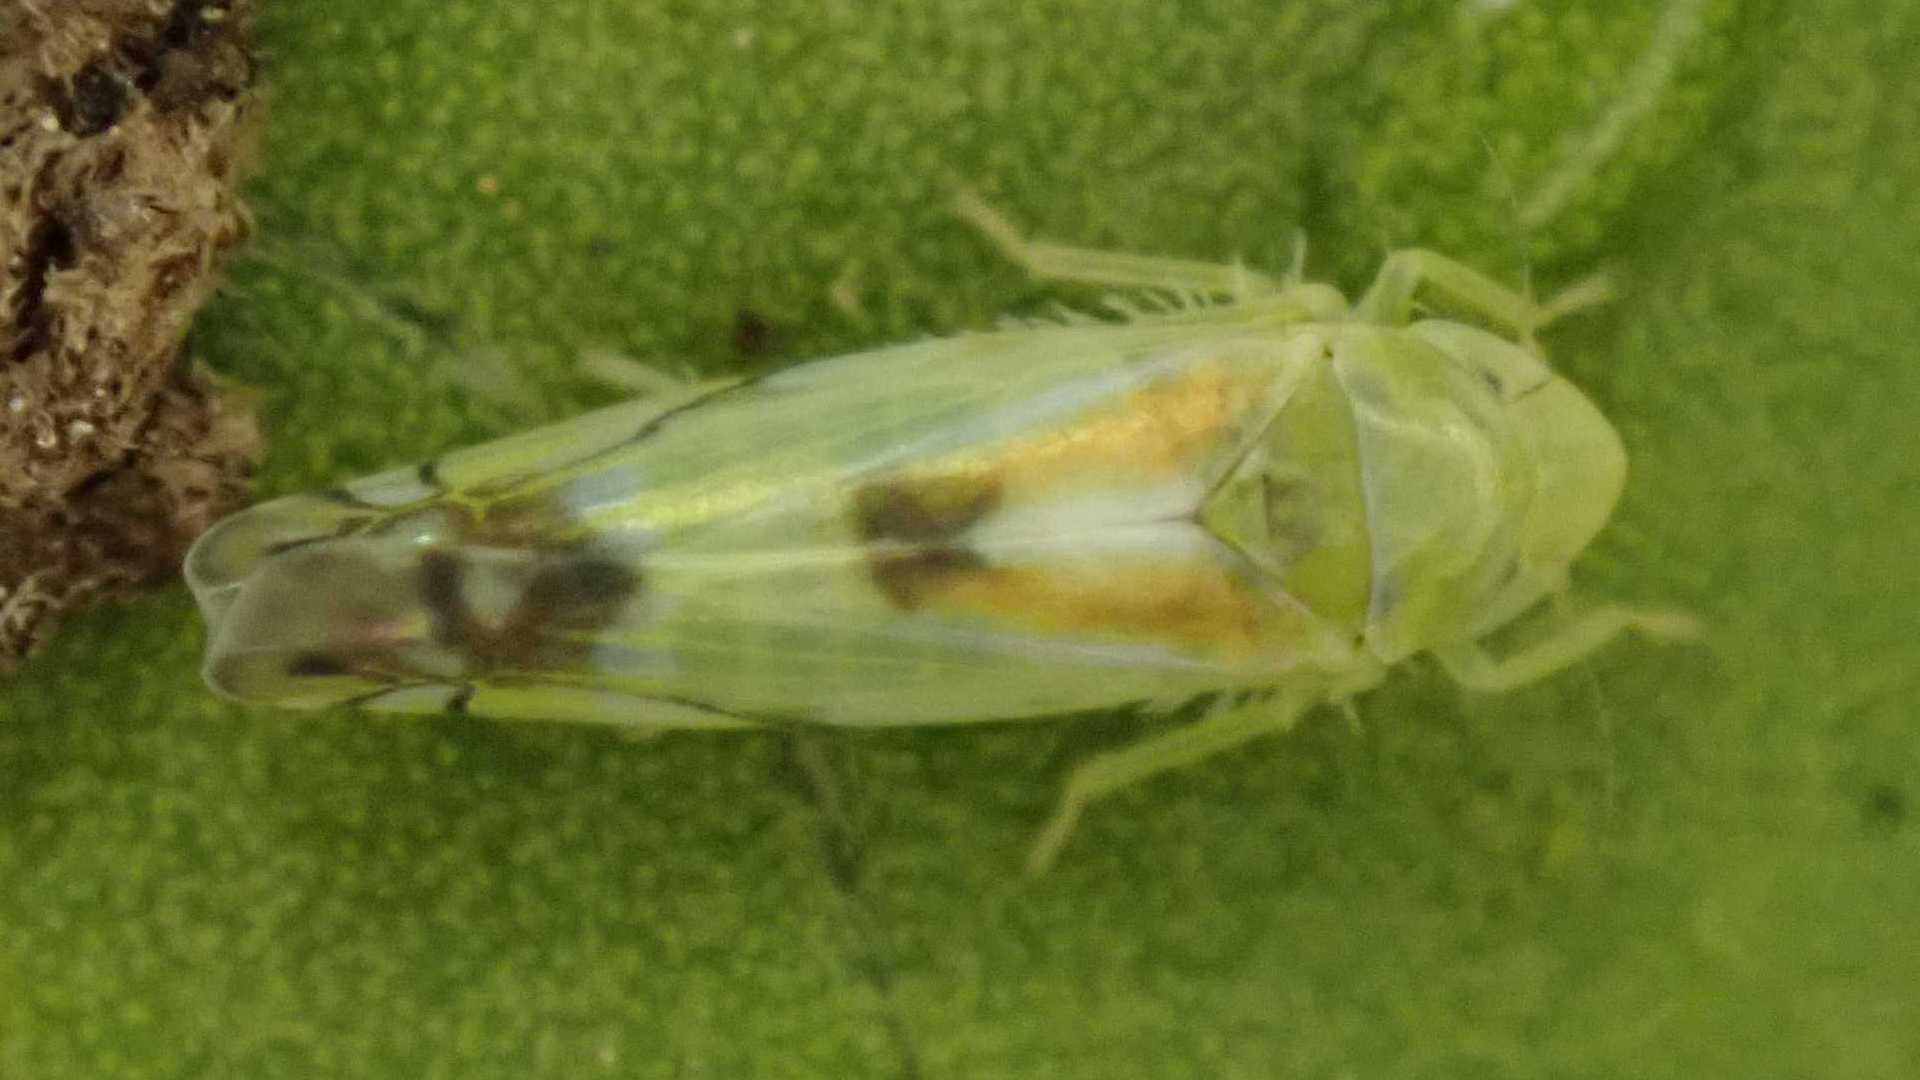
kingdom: Animalia
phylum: Arthropoda
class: Insecta
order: Hemiptera
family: Cicadellidae
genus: Zyginella
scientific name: Zyginella pulchra
